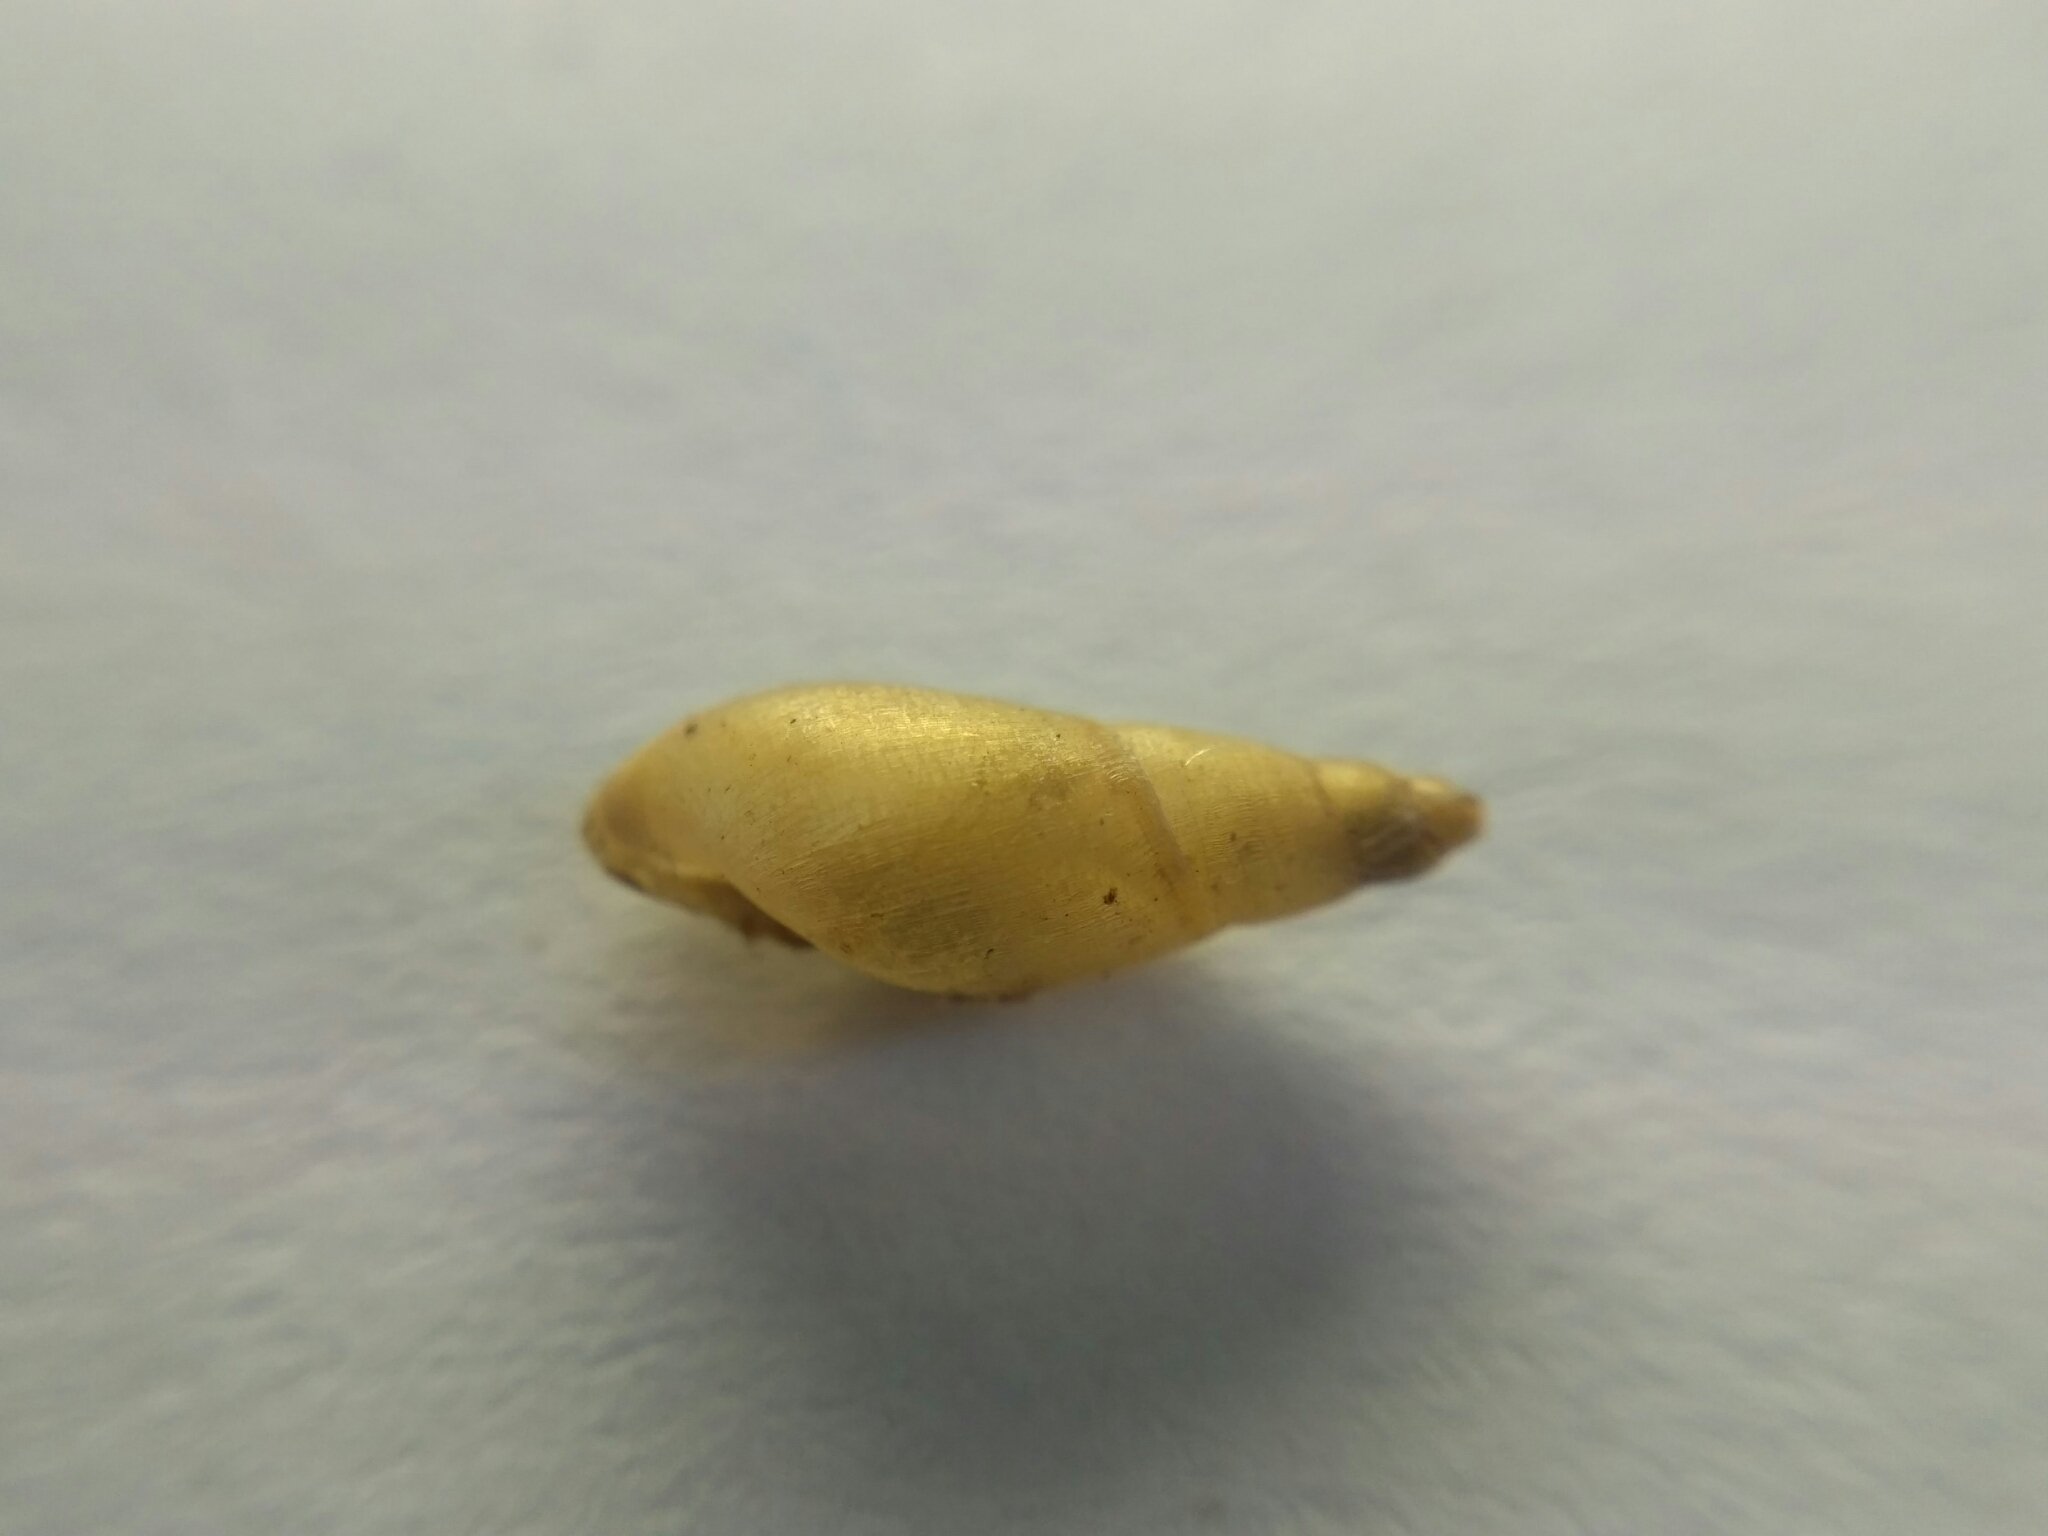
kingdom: Animalia
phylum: Mollusca
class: Gastropoda
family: Lymnaeidae
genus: Lymnaea
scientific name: Lymnaea stagnalis
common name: Great pond snail
